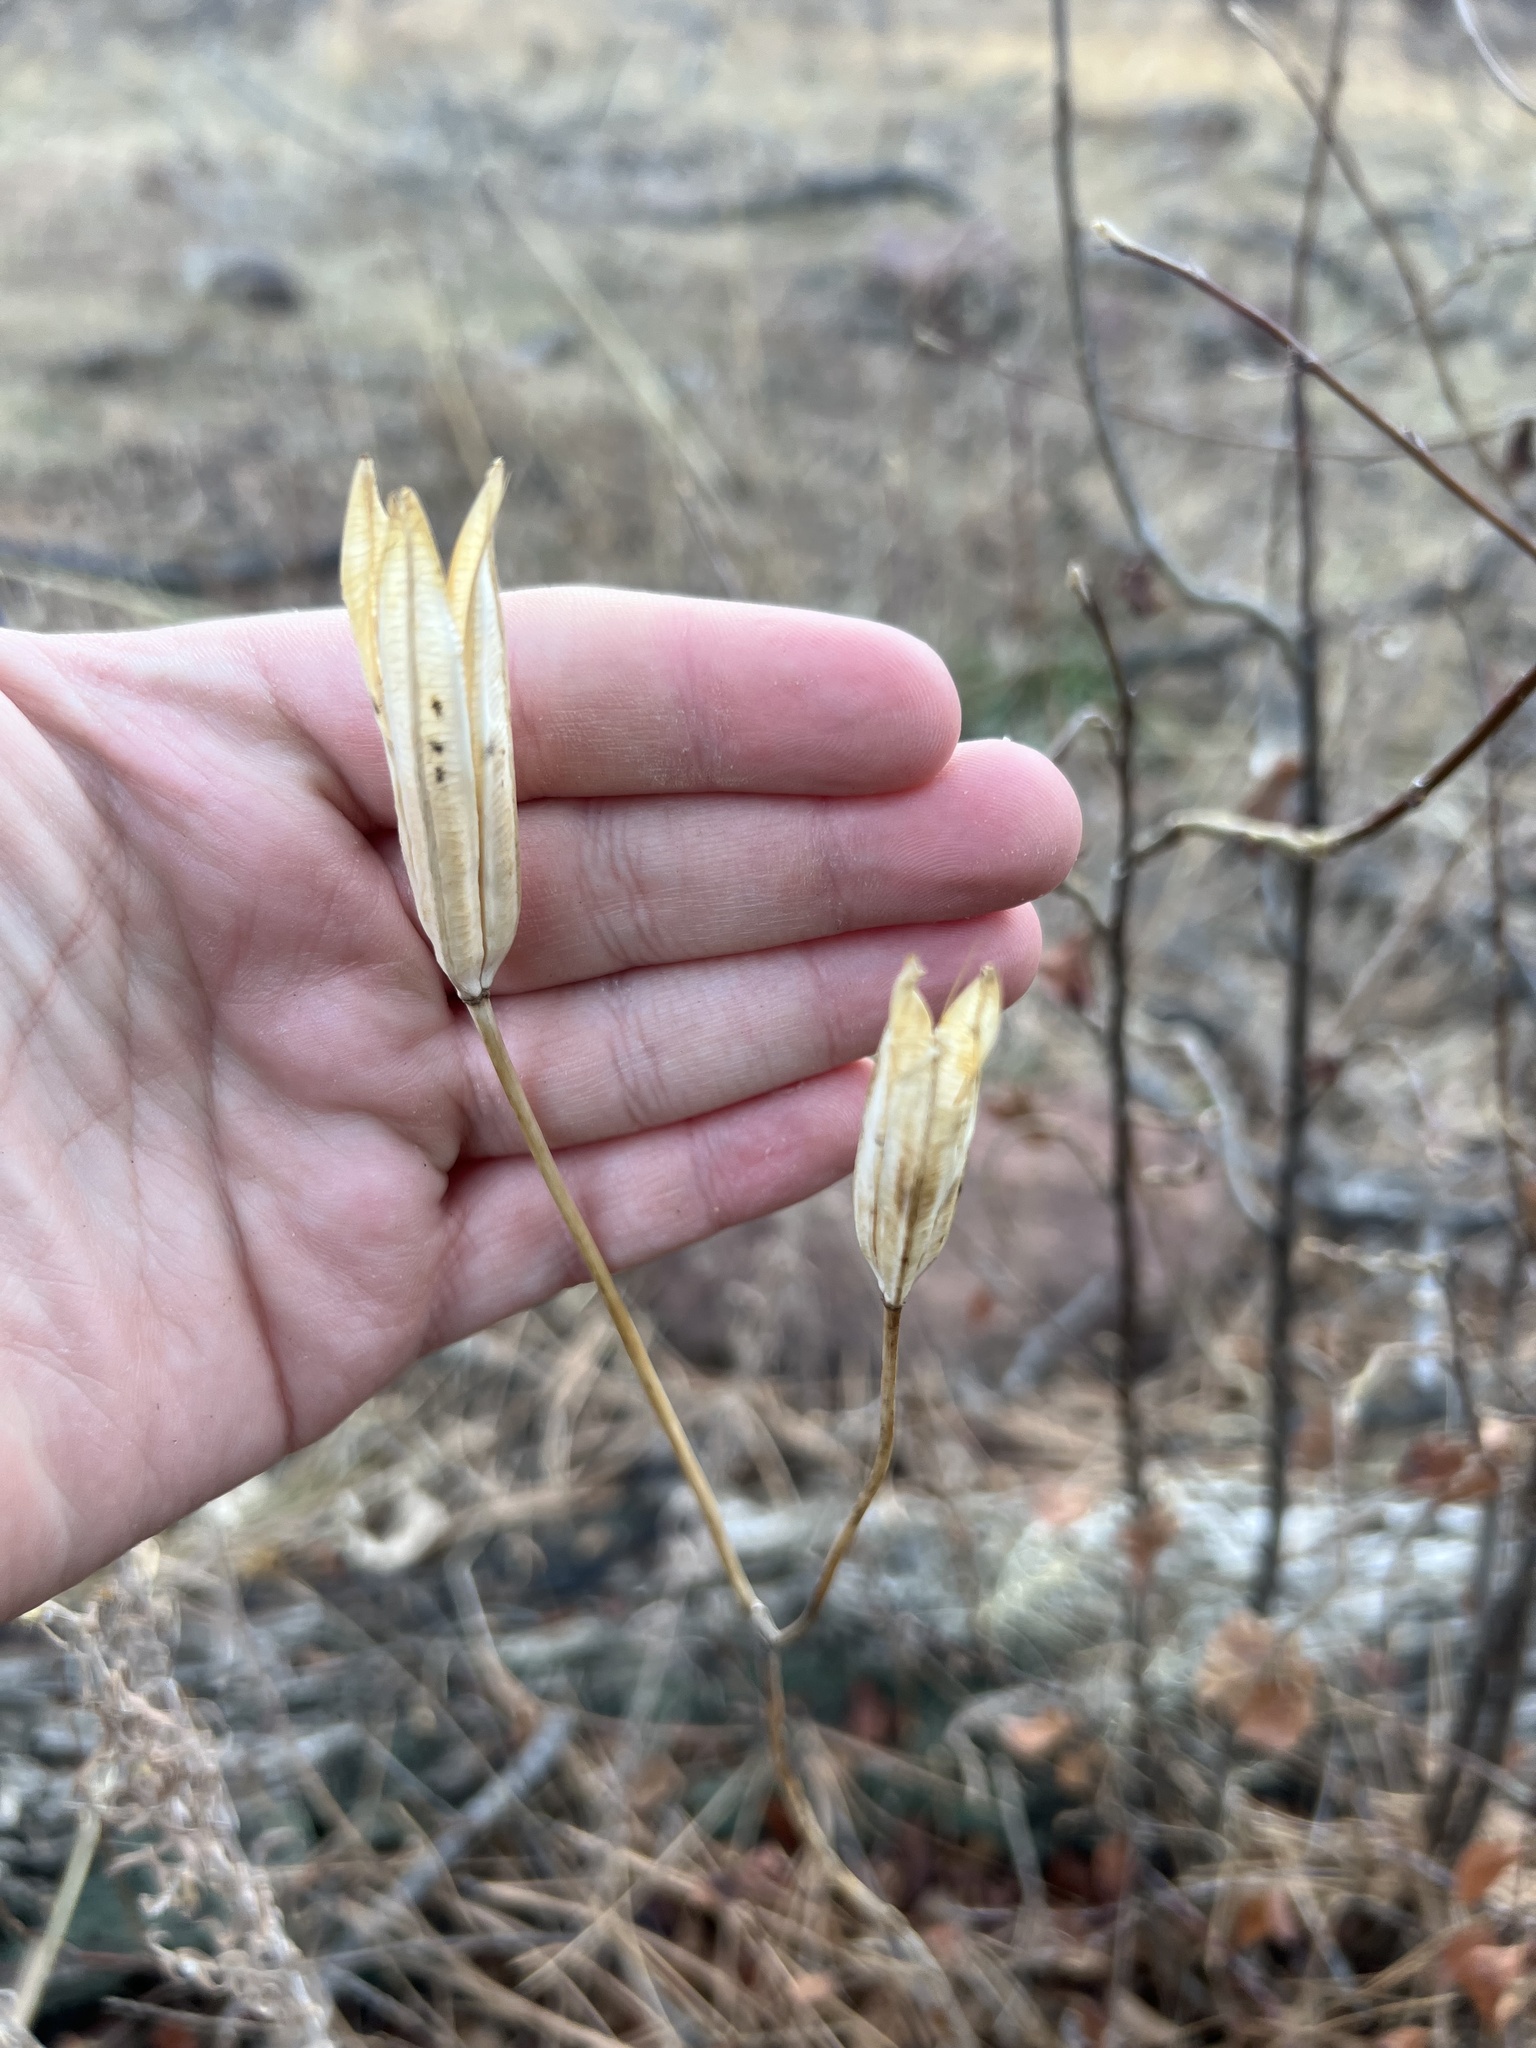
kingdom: Plantae
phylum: Tracheophyta
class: Liliopsida
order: Liliales
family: Liliaceae
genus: Calochortus
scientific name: Calochortus gunnisonii
